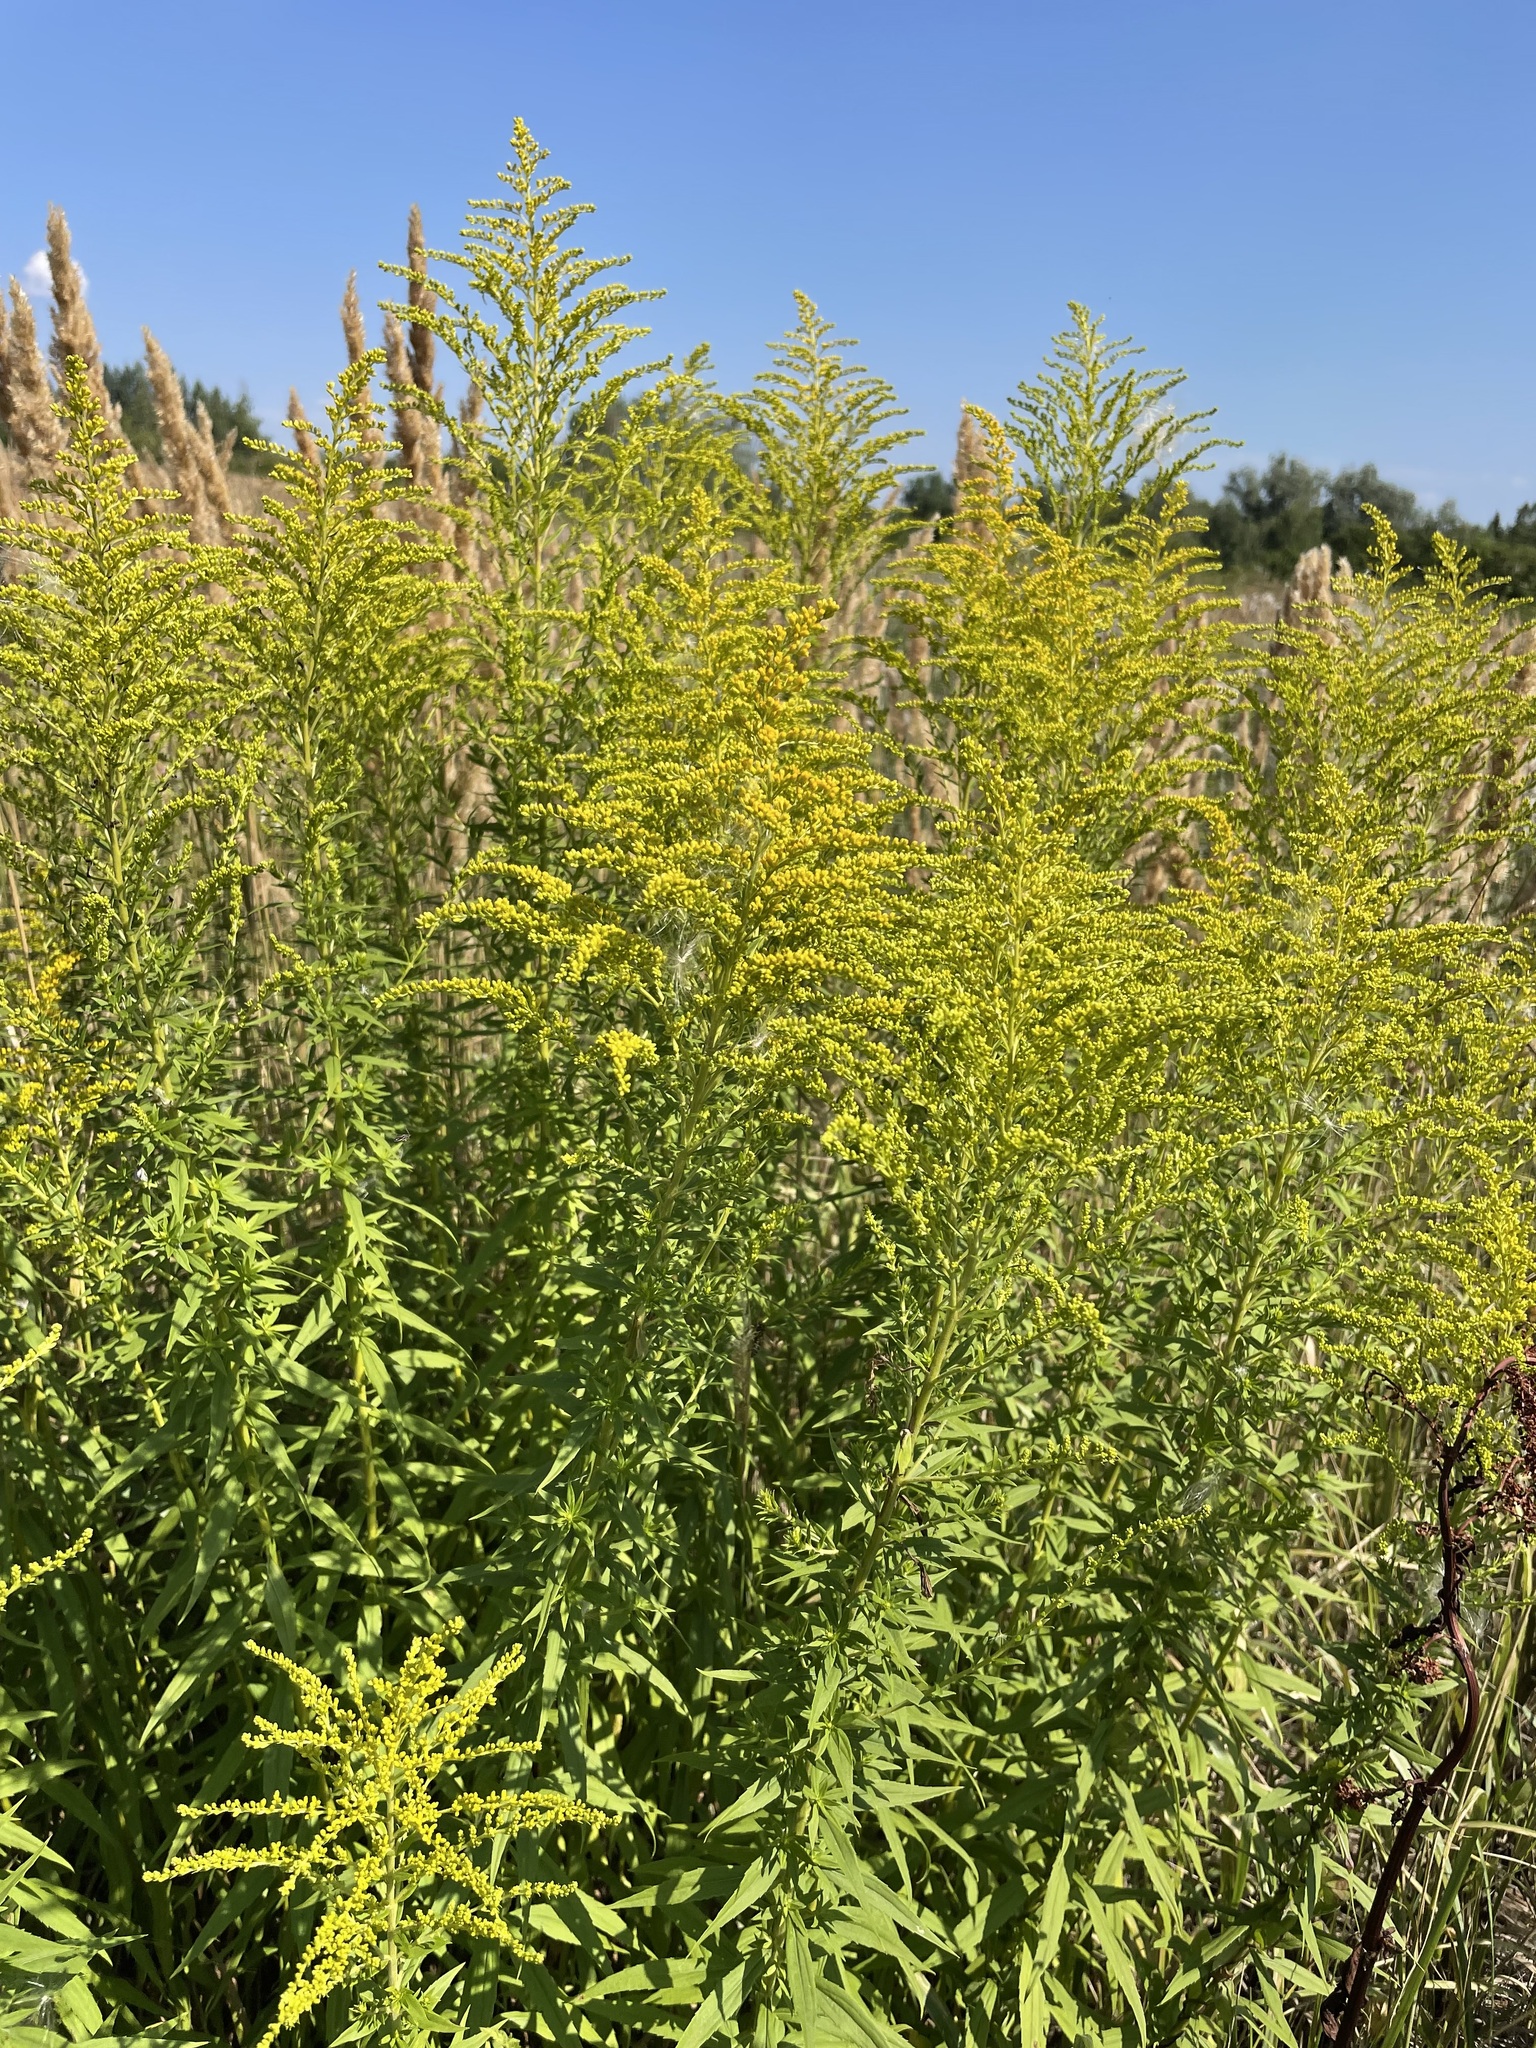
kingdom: Plantae
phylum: Tracheophyta
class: Magnoliopsida
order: Asterales
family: Asteraceae
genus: Solidago
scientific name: Solidago canadensis
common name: Canada goldenrod
